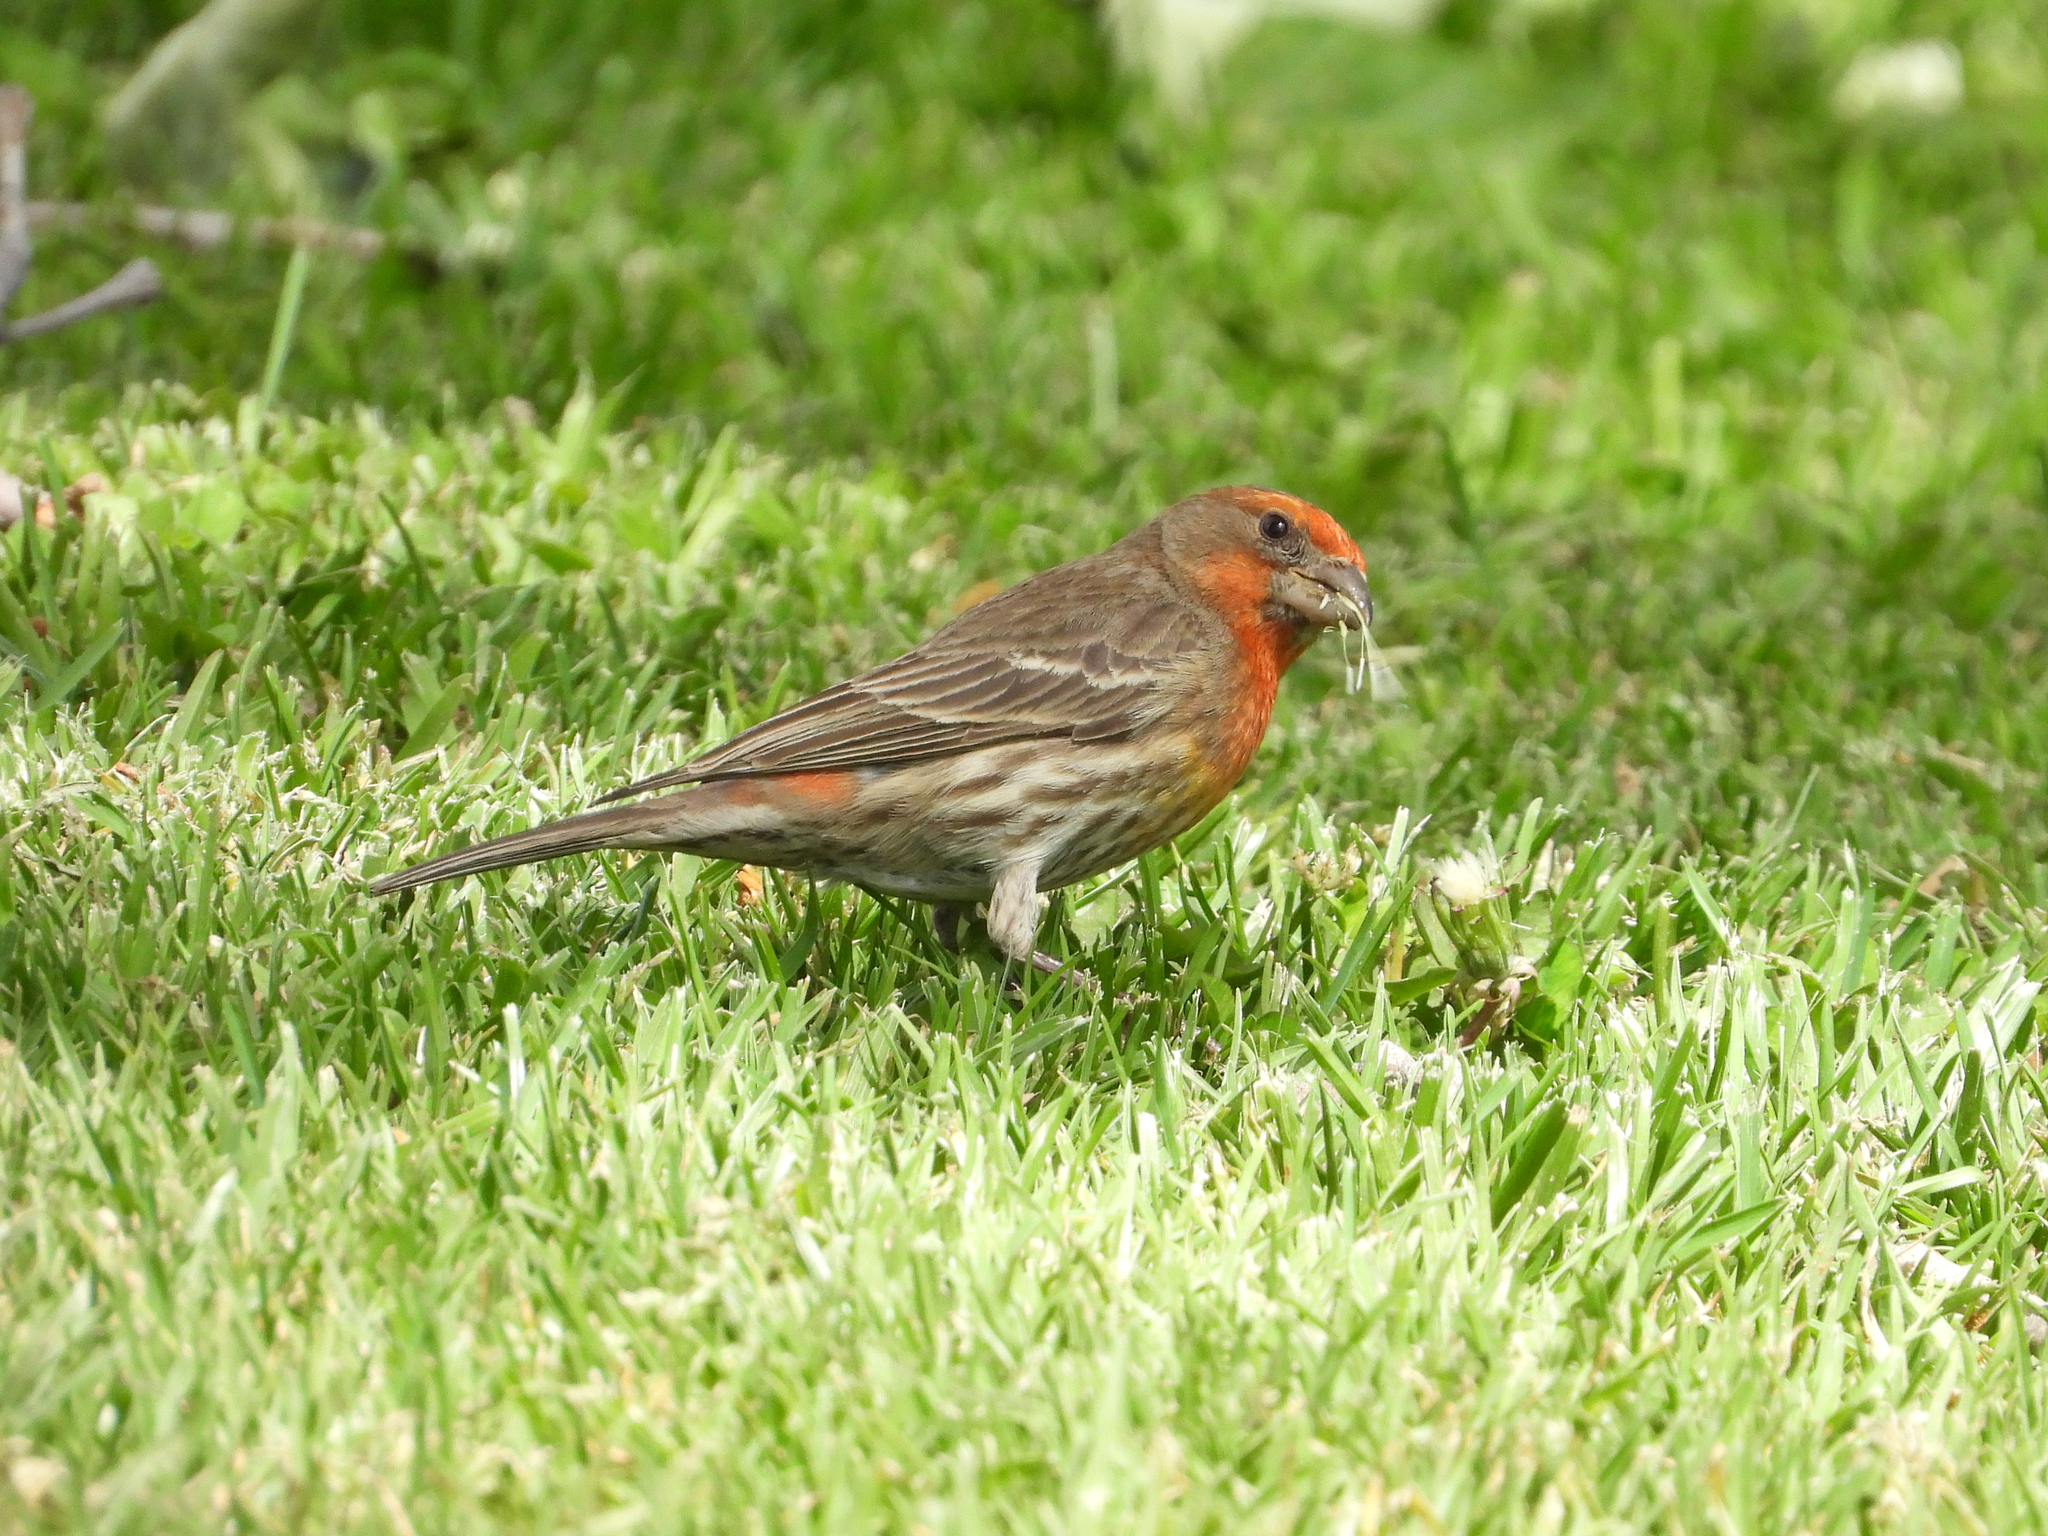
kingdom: Animalia
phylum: Chordata
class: Aves
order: Passeriformes
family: Fringillidae
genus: Haemorhous
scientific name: Haemorhous mexicanus
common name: House finch
